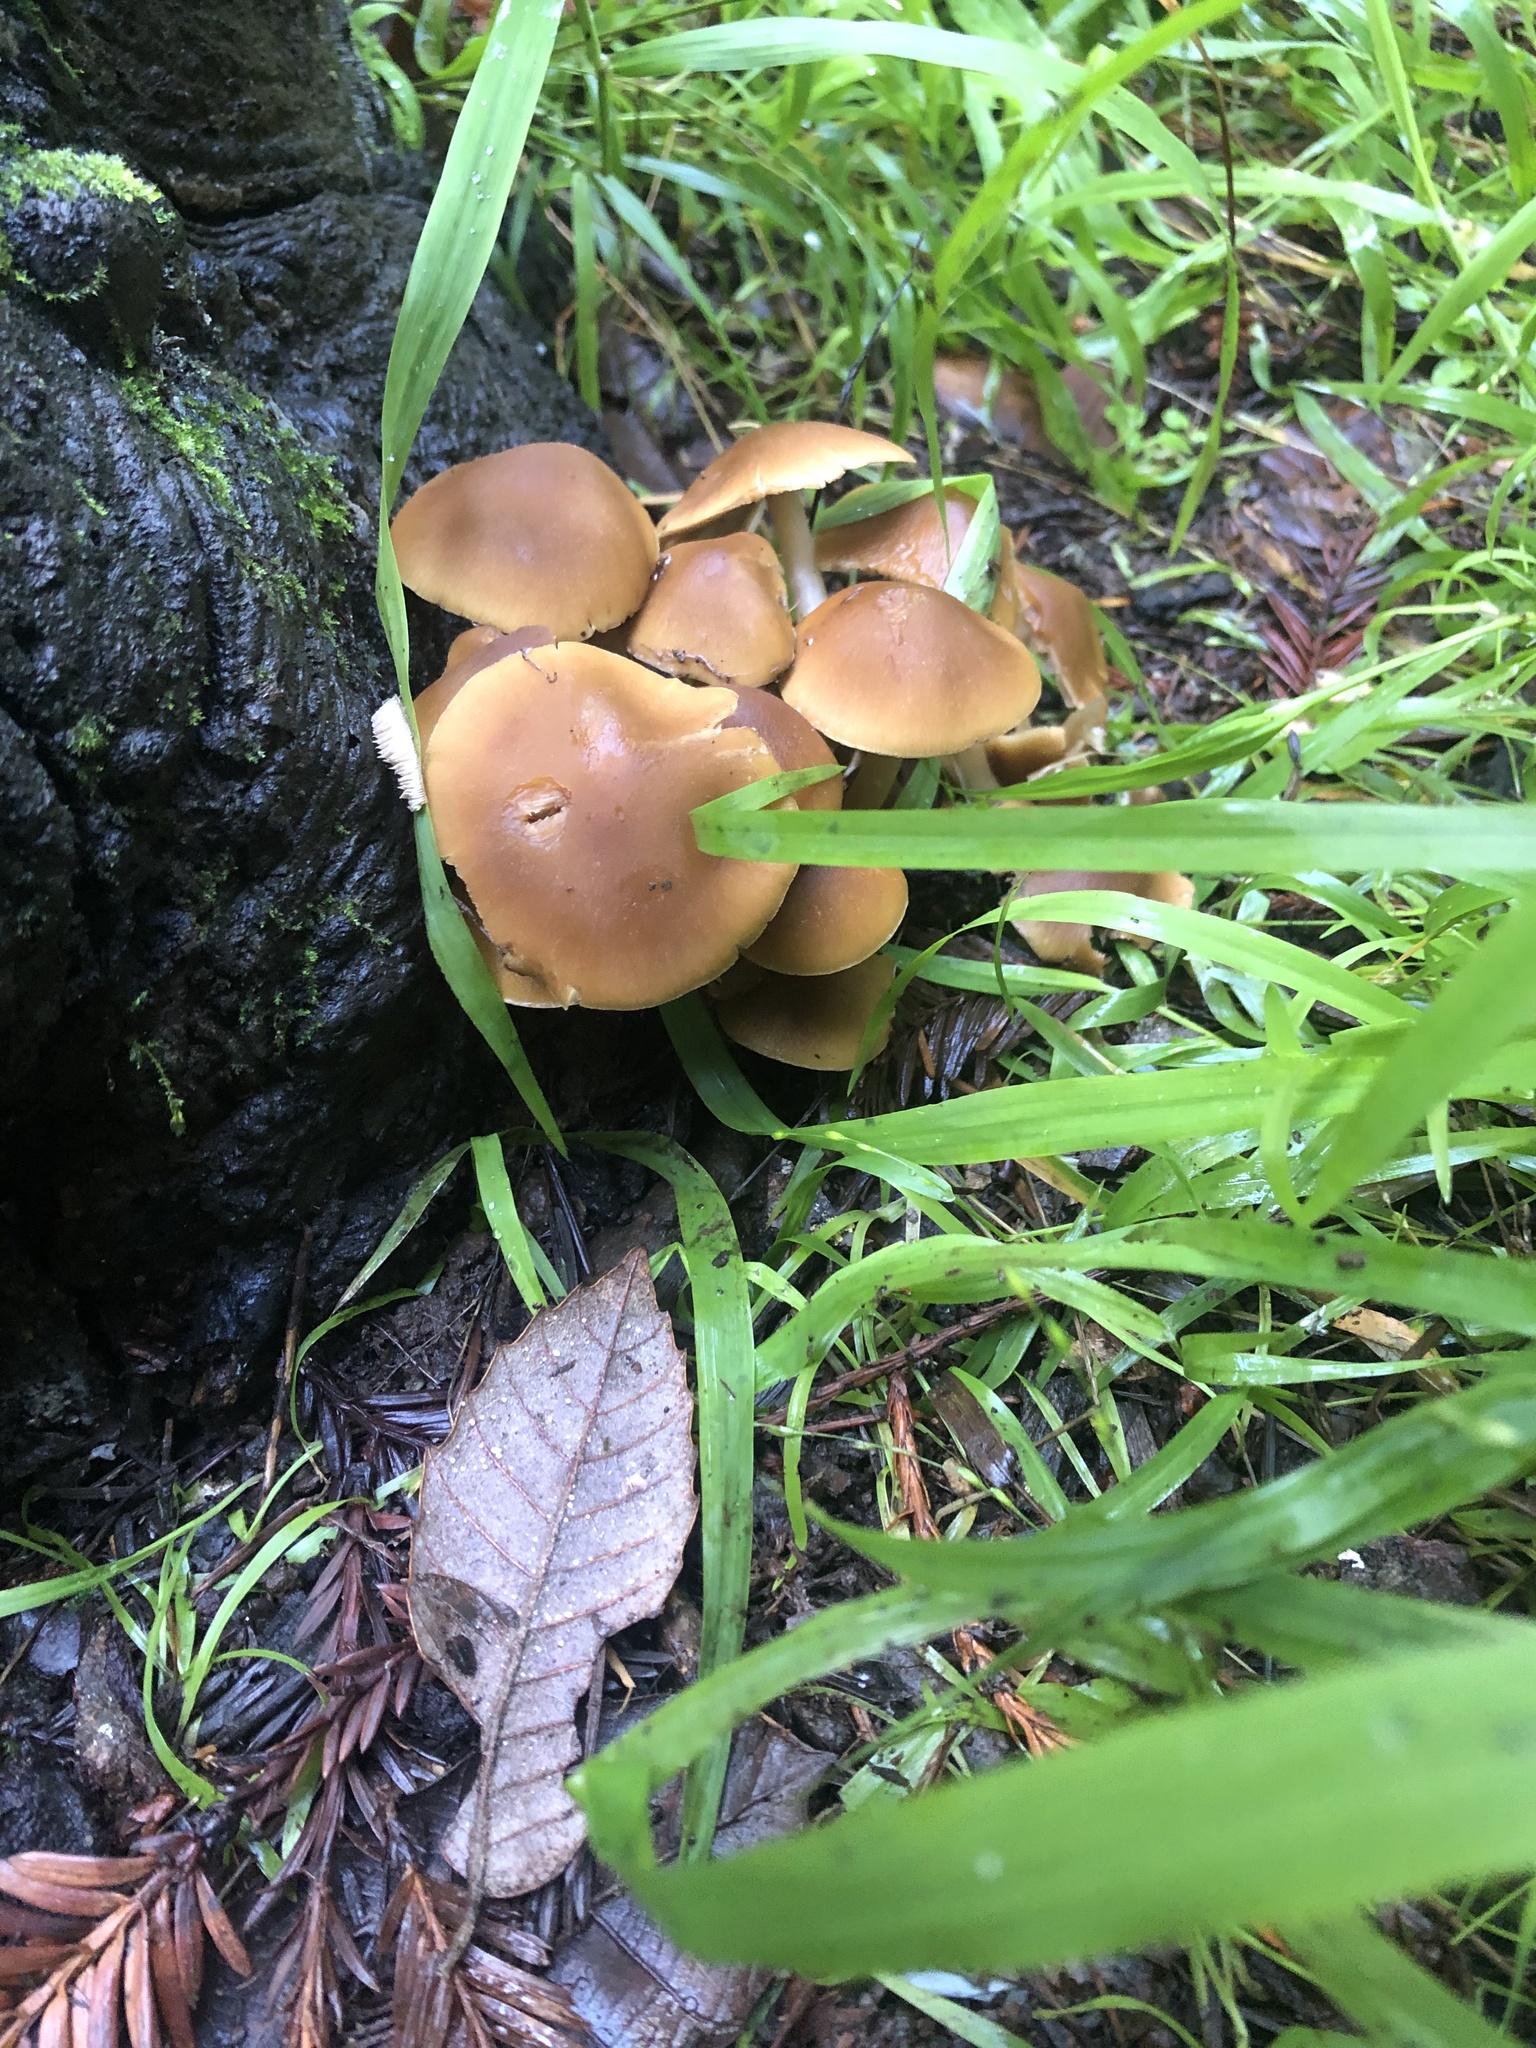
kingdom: Fungi
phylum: Basidiomycota
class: Agaricomycetes
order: Agaricales
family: Psathyrellaceae
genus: Candolleomyces
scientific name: Candolleomyces candolleanus
